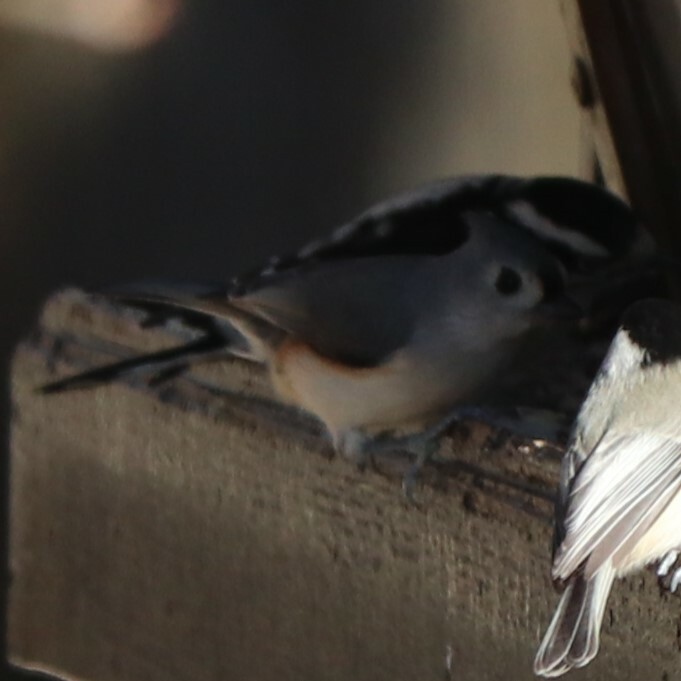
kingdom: Animalia
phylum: Chordata
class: Aves
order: Passeriformes
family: Paridae
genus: Baeolophus
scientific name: Baeolophus bicolor
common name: Tufted titmouse
